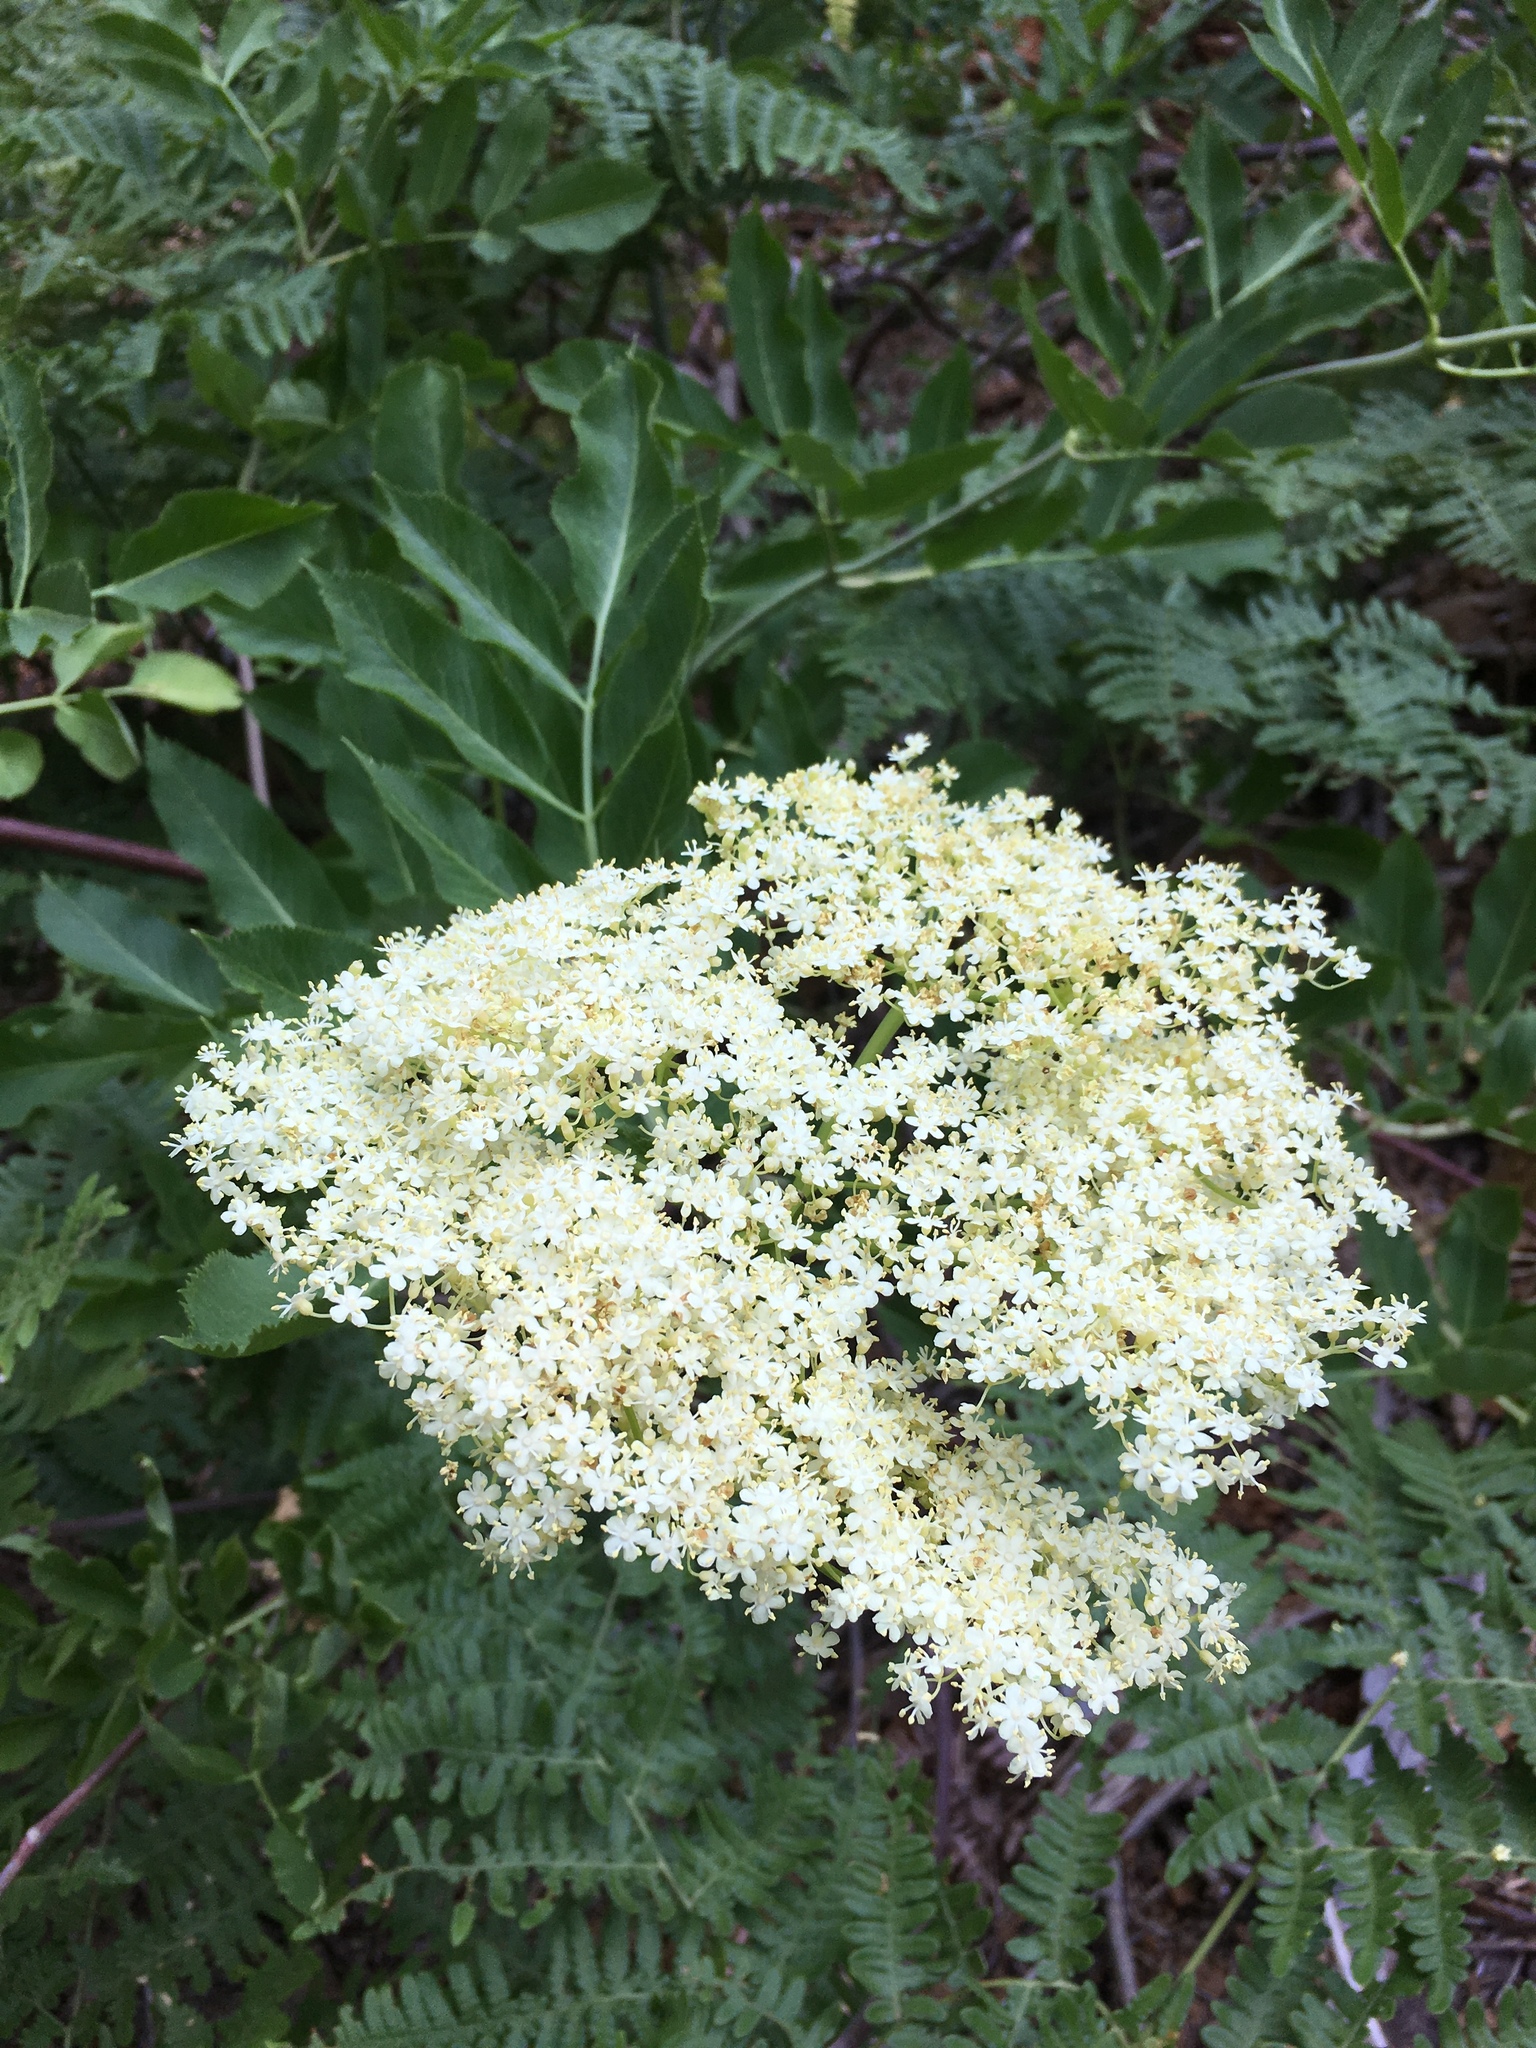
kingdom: Plantae
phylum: Tracheophyta
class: Magnoliopsida
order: Dipsacales
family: Viburnaceae
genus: Sambucus
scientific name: Sambucus cerulea
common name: Blue elder
